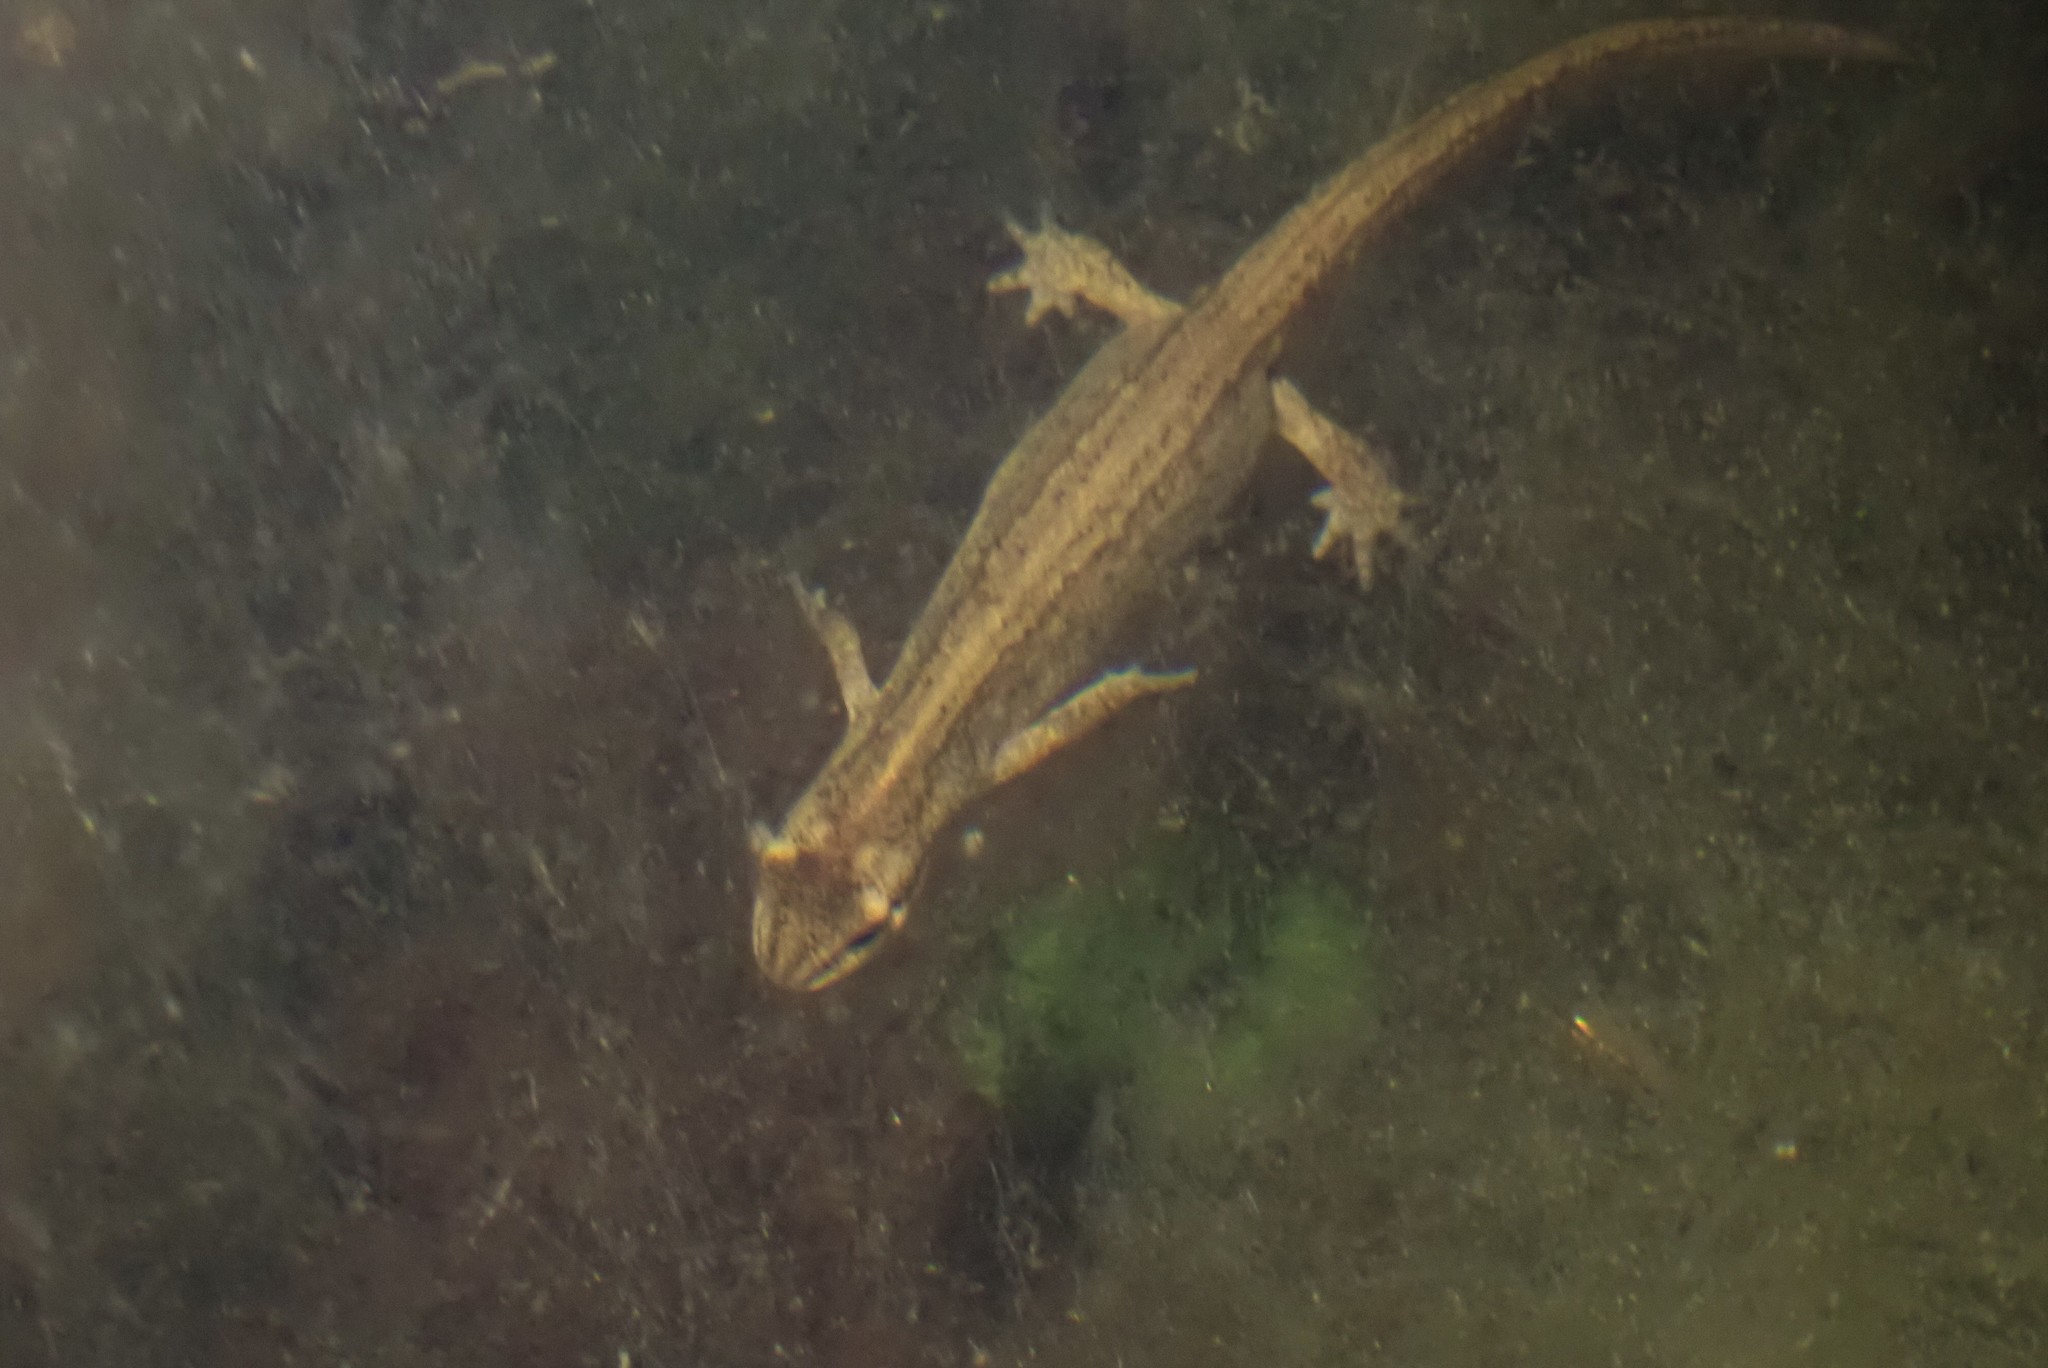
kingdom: Animalia
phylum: Chordata
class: Amphibia
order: Caudata
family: Salamandridae
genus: Lissotriton
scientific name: Lissotriton vulgaris
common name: Smooth newt
